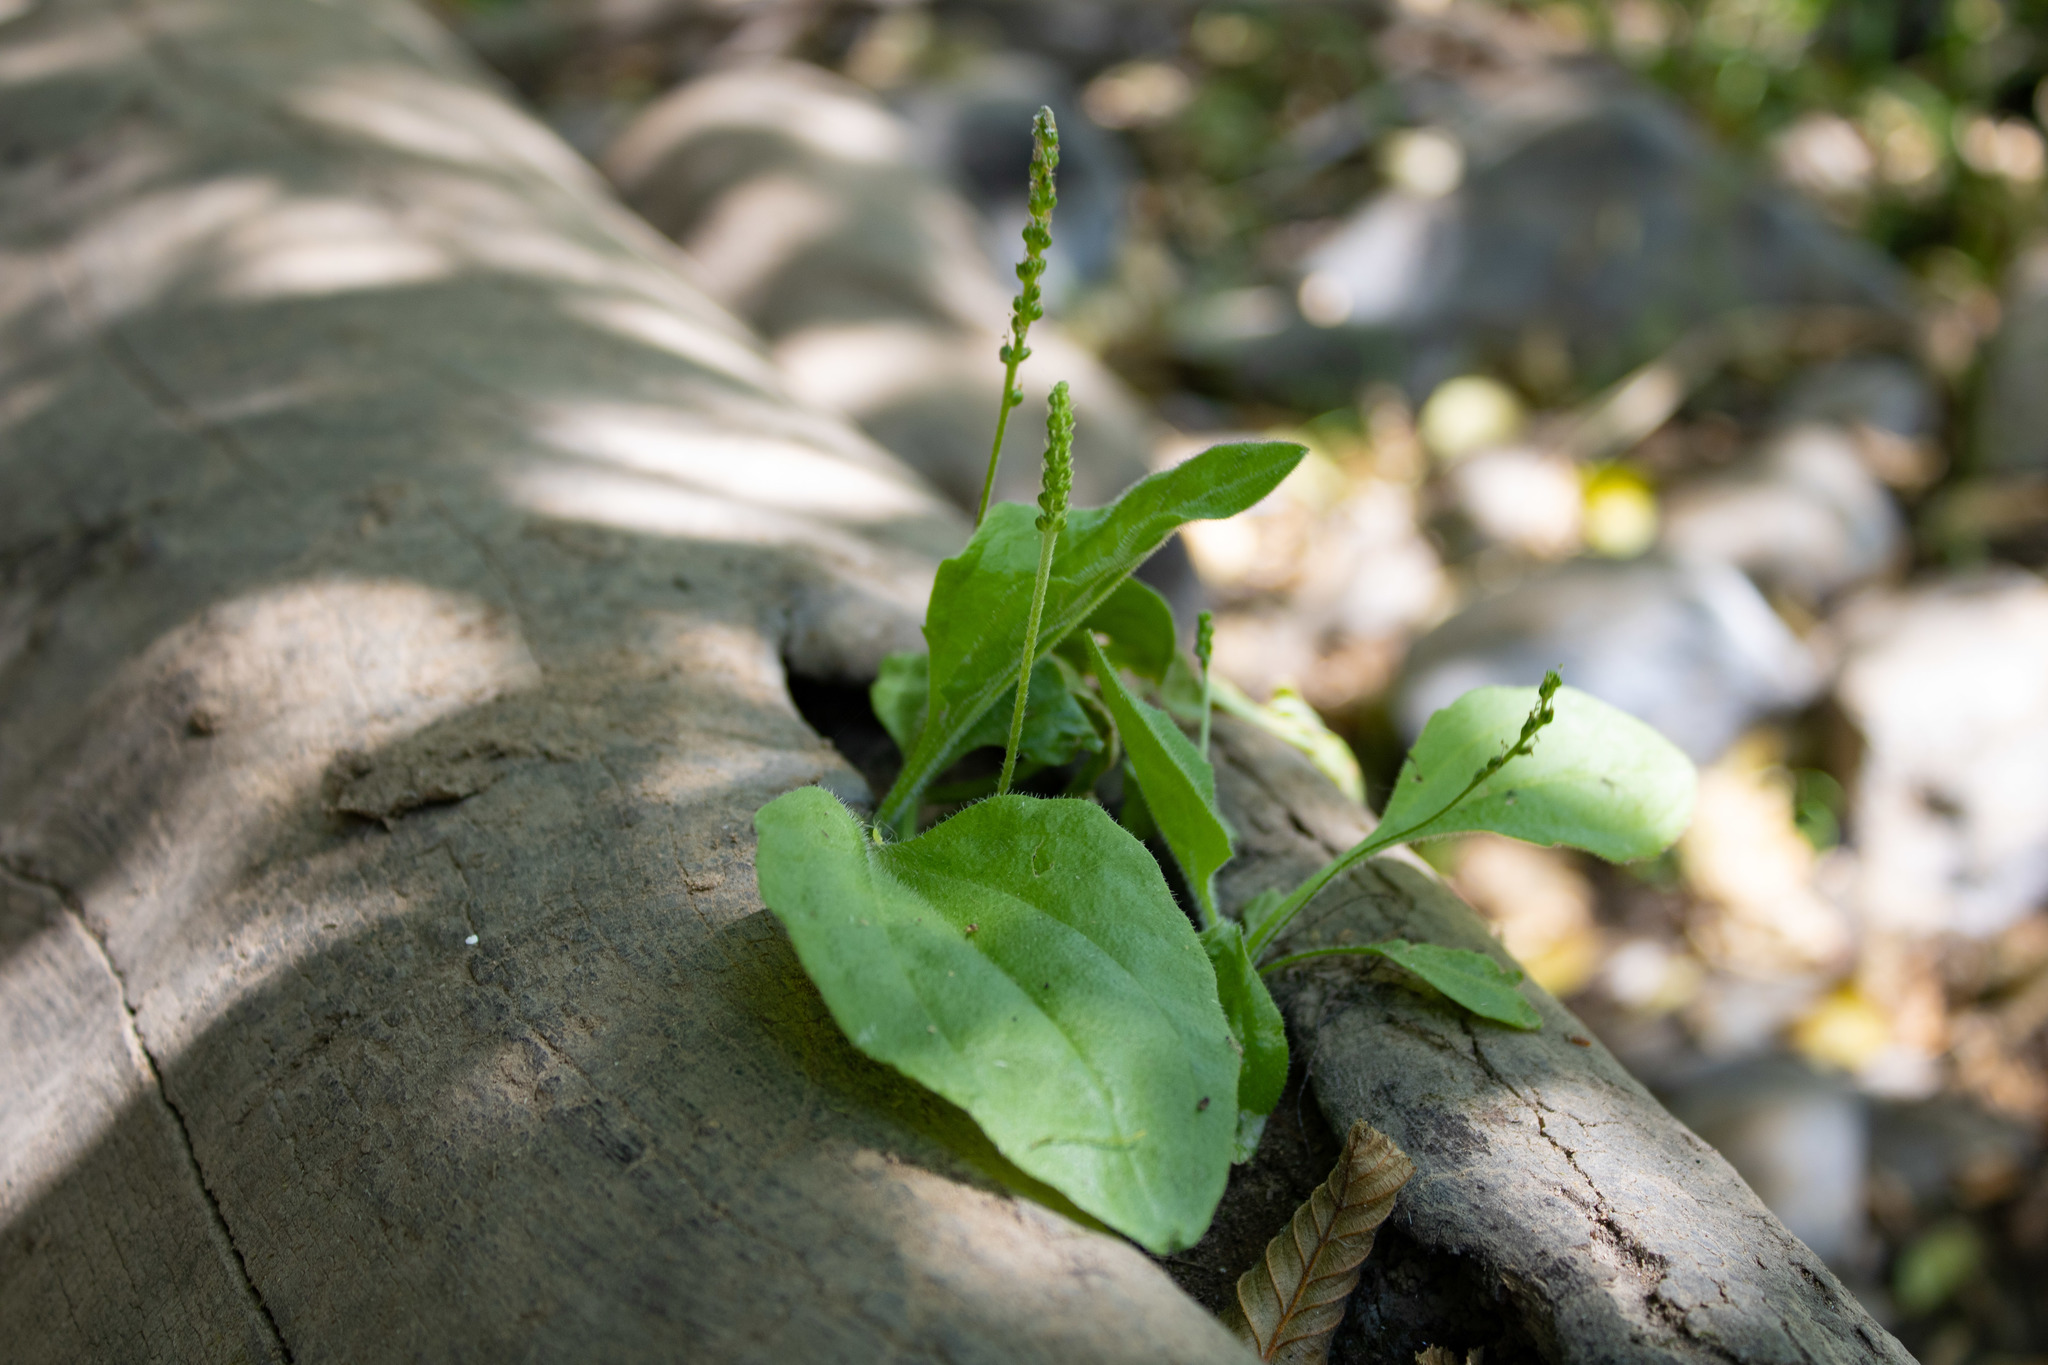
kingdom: Plantae
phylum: Tracheophyta
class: Magnoliopsida
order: Lamiales
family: Plantaginaceae
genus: Plantago
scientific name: Plantago major
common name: Common plantain
